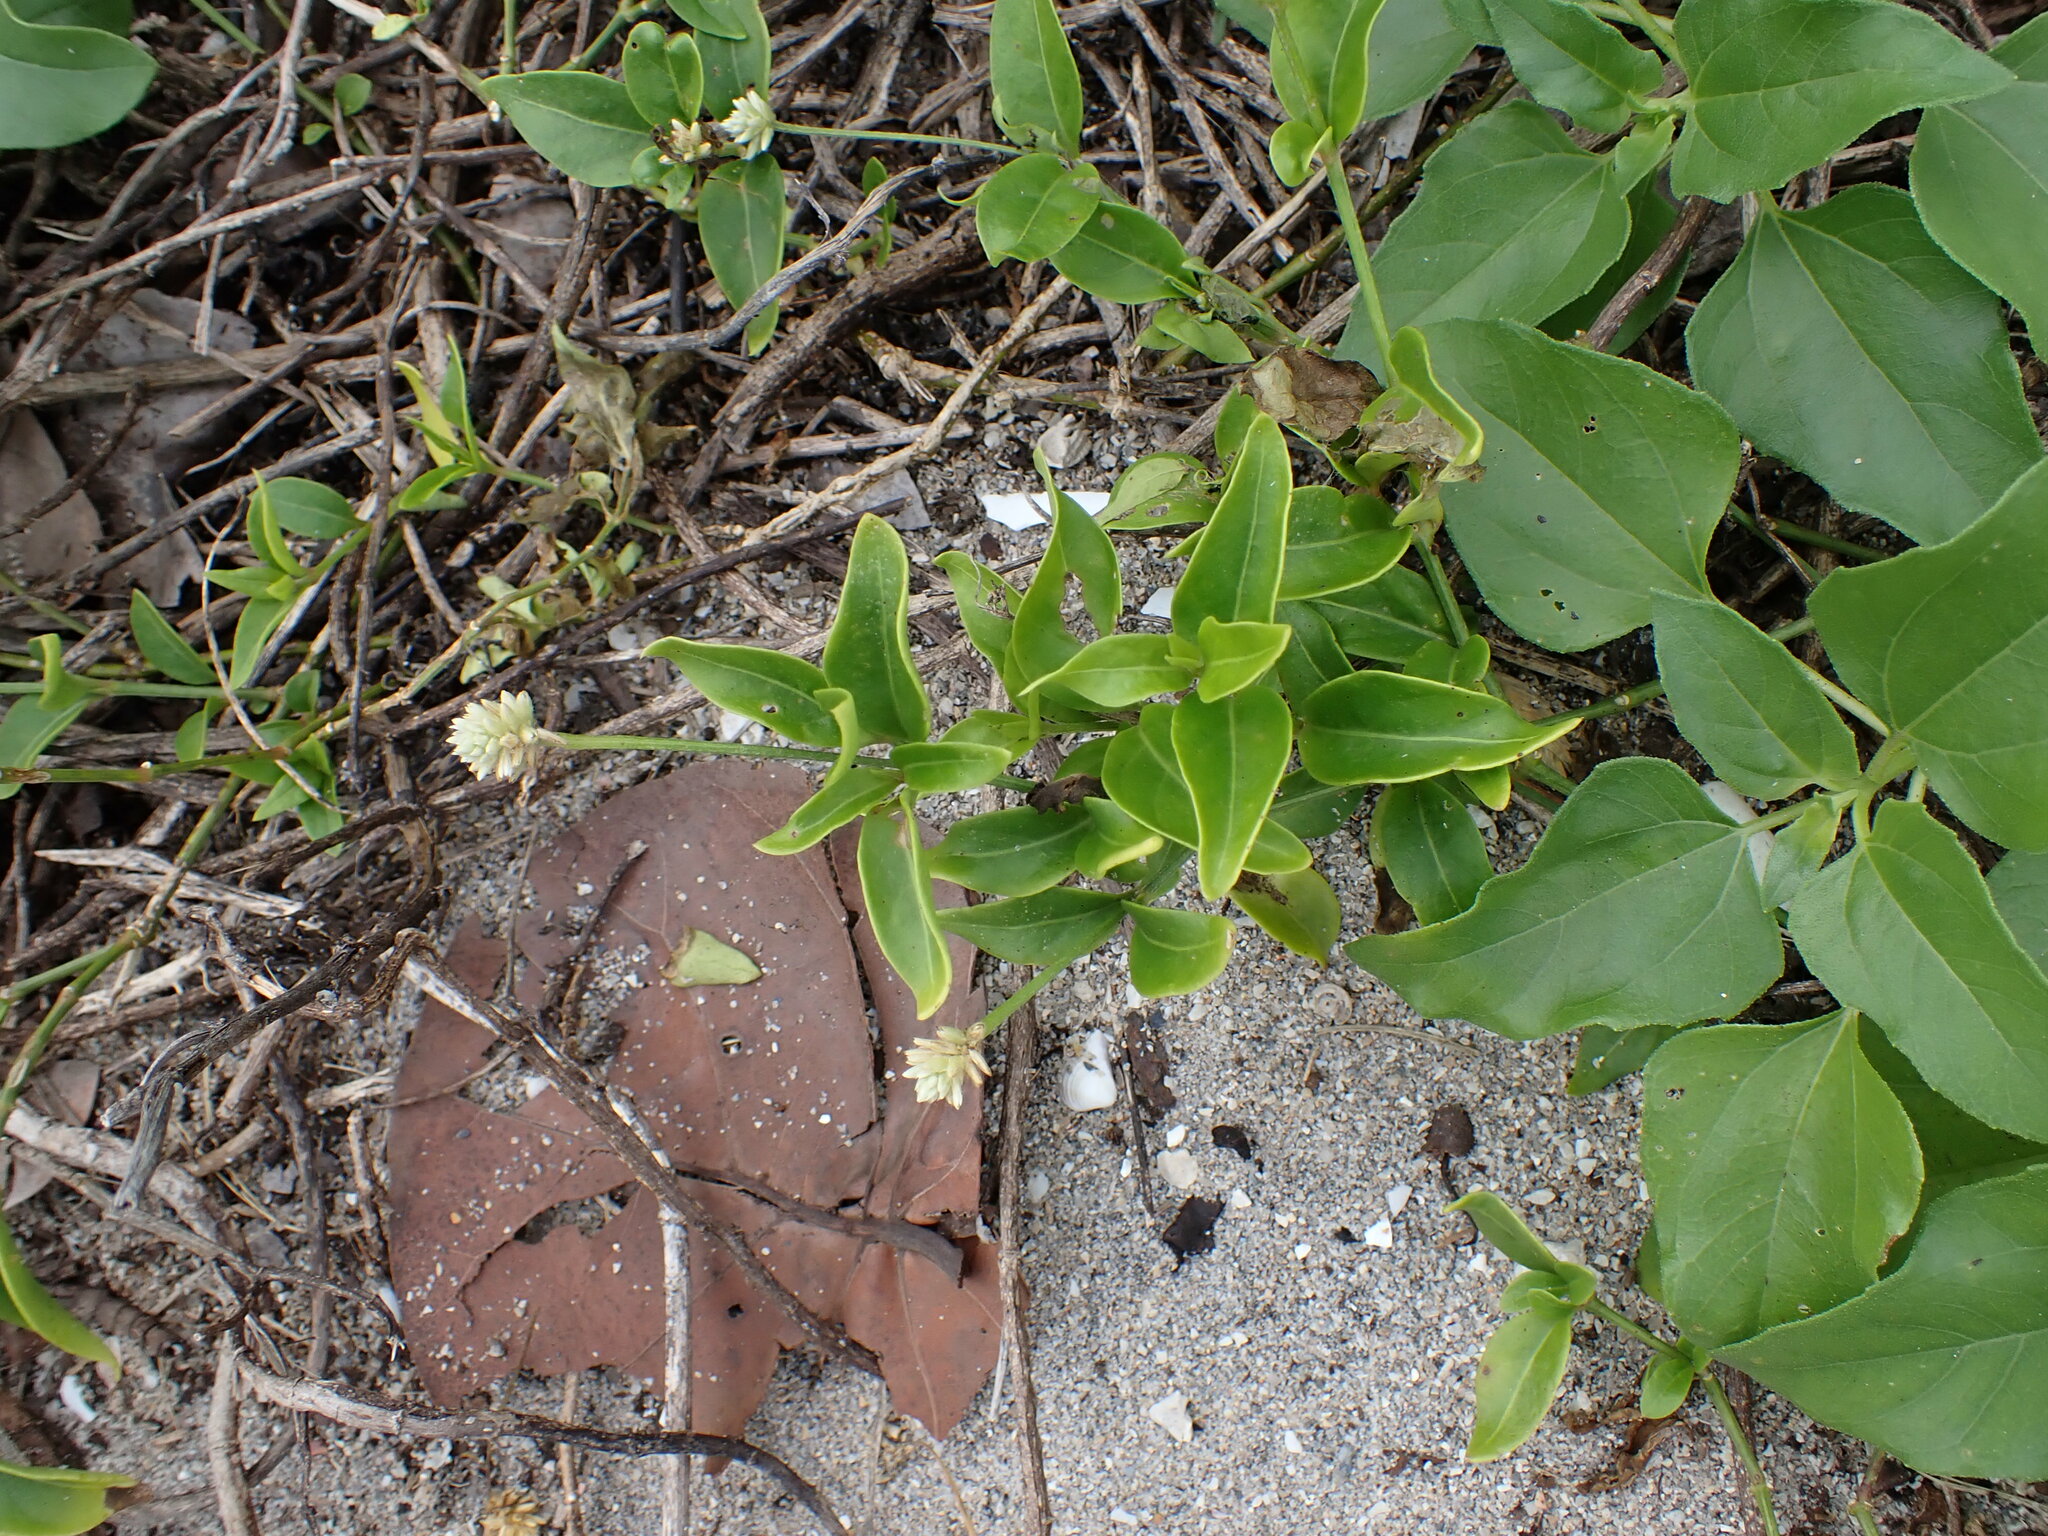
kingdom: Plantae
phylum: Tracheophyta
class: Magnoliopsida
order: Caryophyllales
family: Amaranthaceae
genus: Alternanthera
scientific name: Alternanthera flavescens
